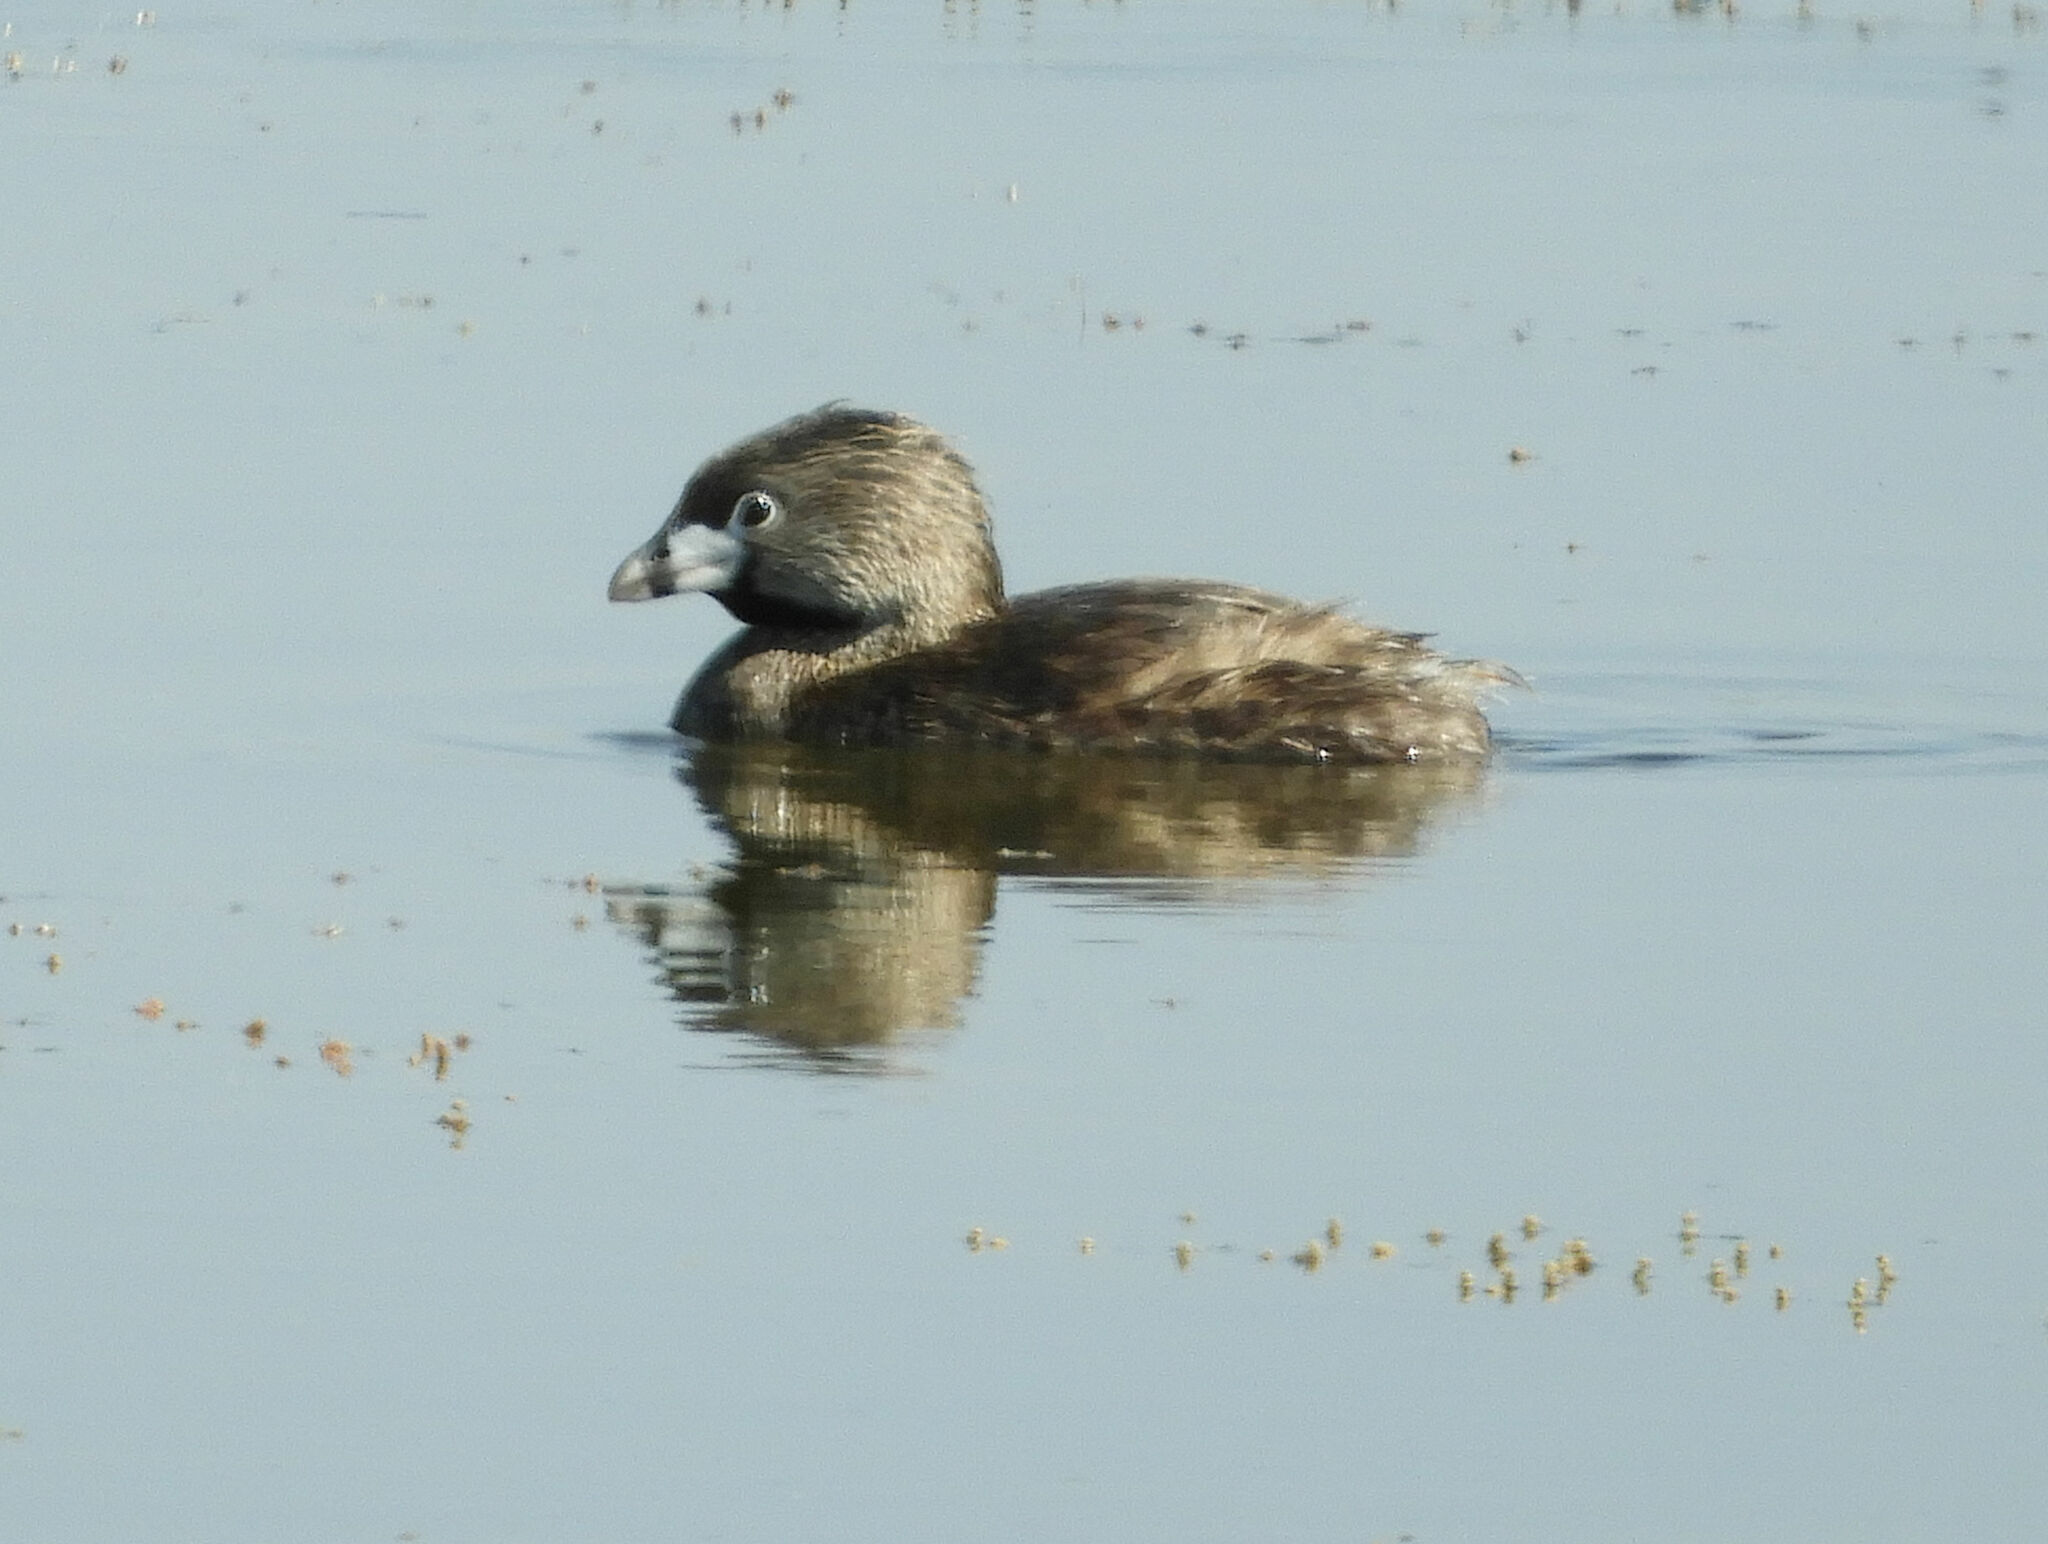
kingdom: Animalia
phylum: Chordata
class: Aves
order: Podicipediformes
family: Podicipedidae
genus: Podilymbus
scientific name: Podilymbus podiceps
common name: Pied-billed grebe
